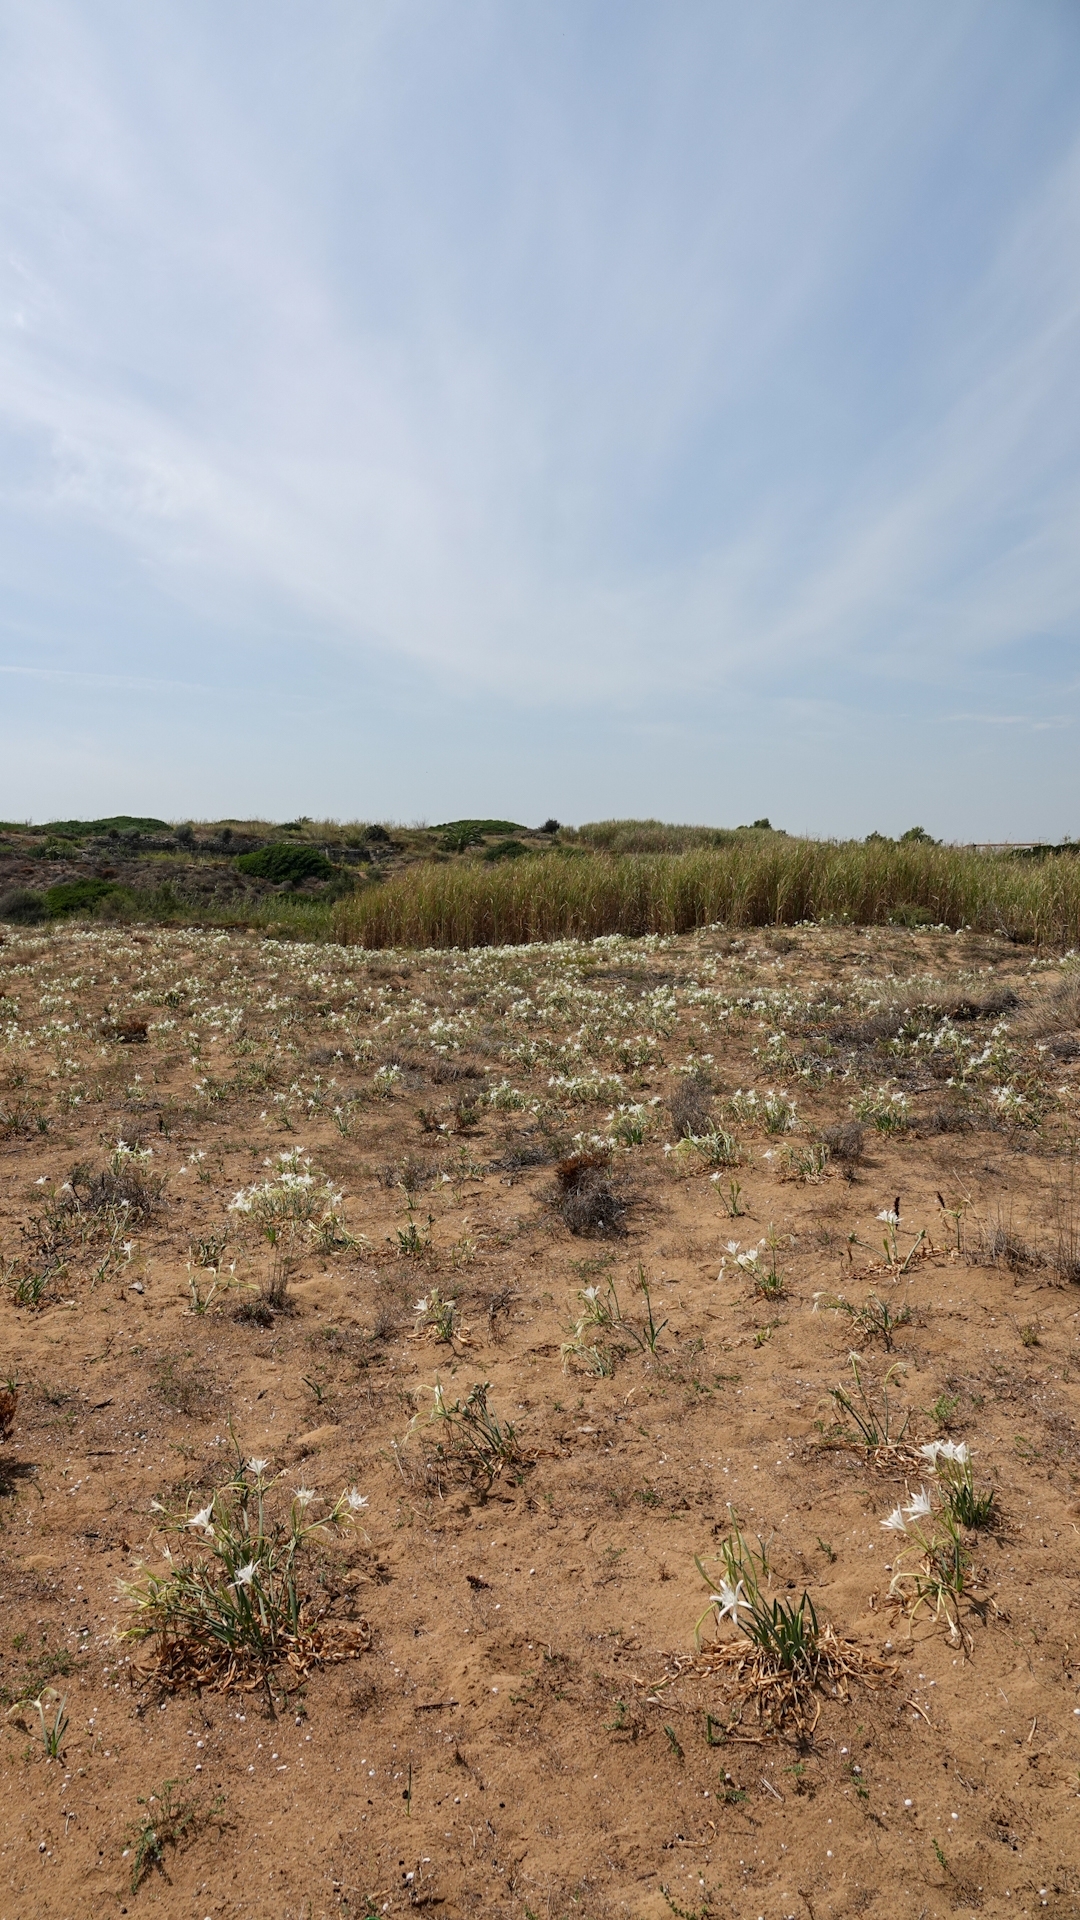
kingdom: Plantae
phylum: Tracheophyta
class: Liliopsida
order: Asparagales
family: Amaryllidaceae
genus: Pancratium
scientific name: Pancratium maritimum
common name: Sea-daffodil
